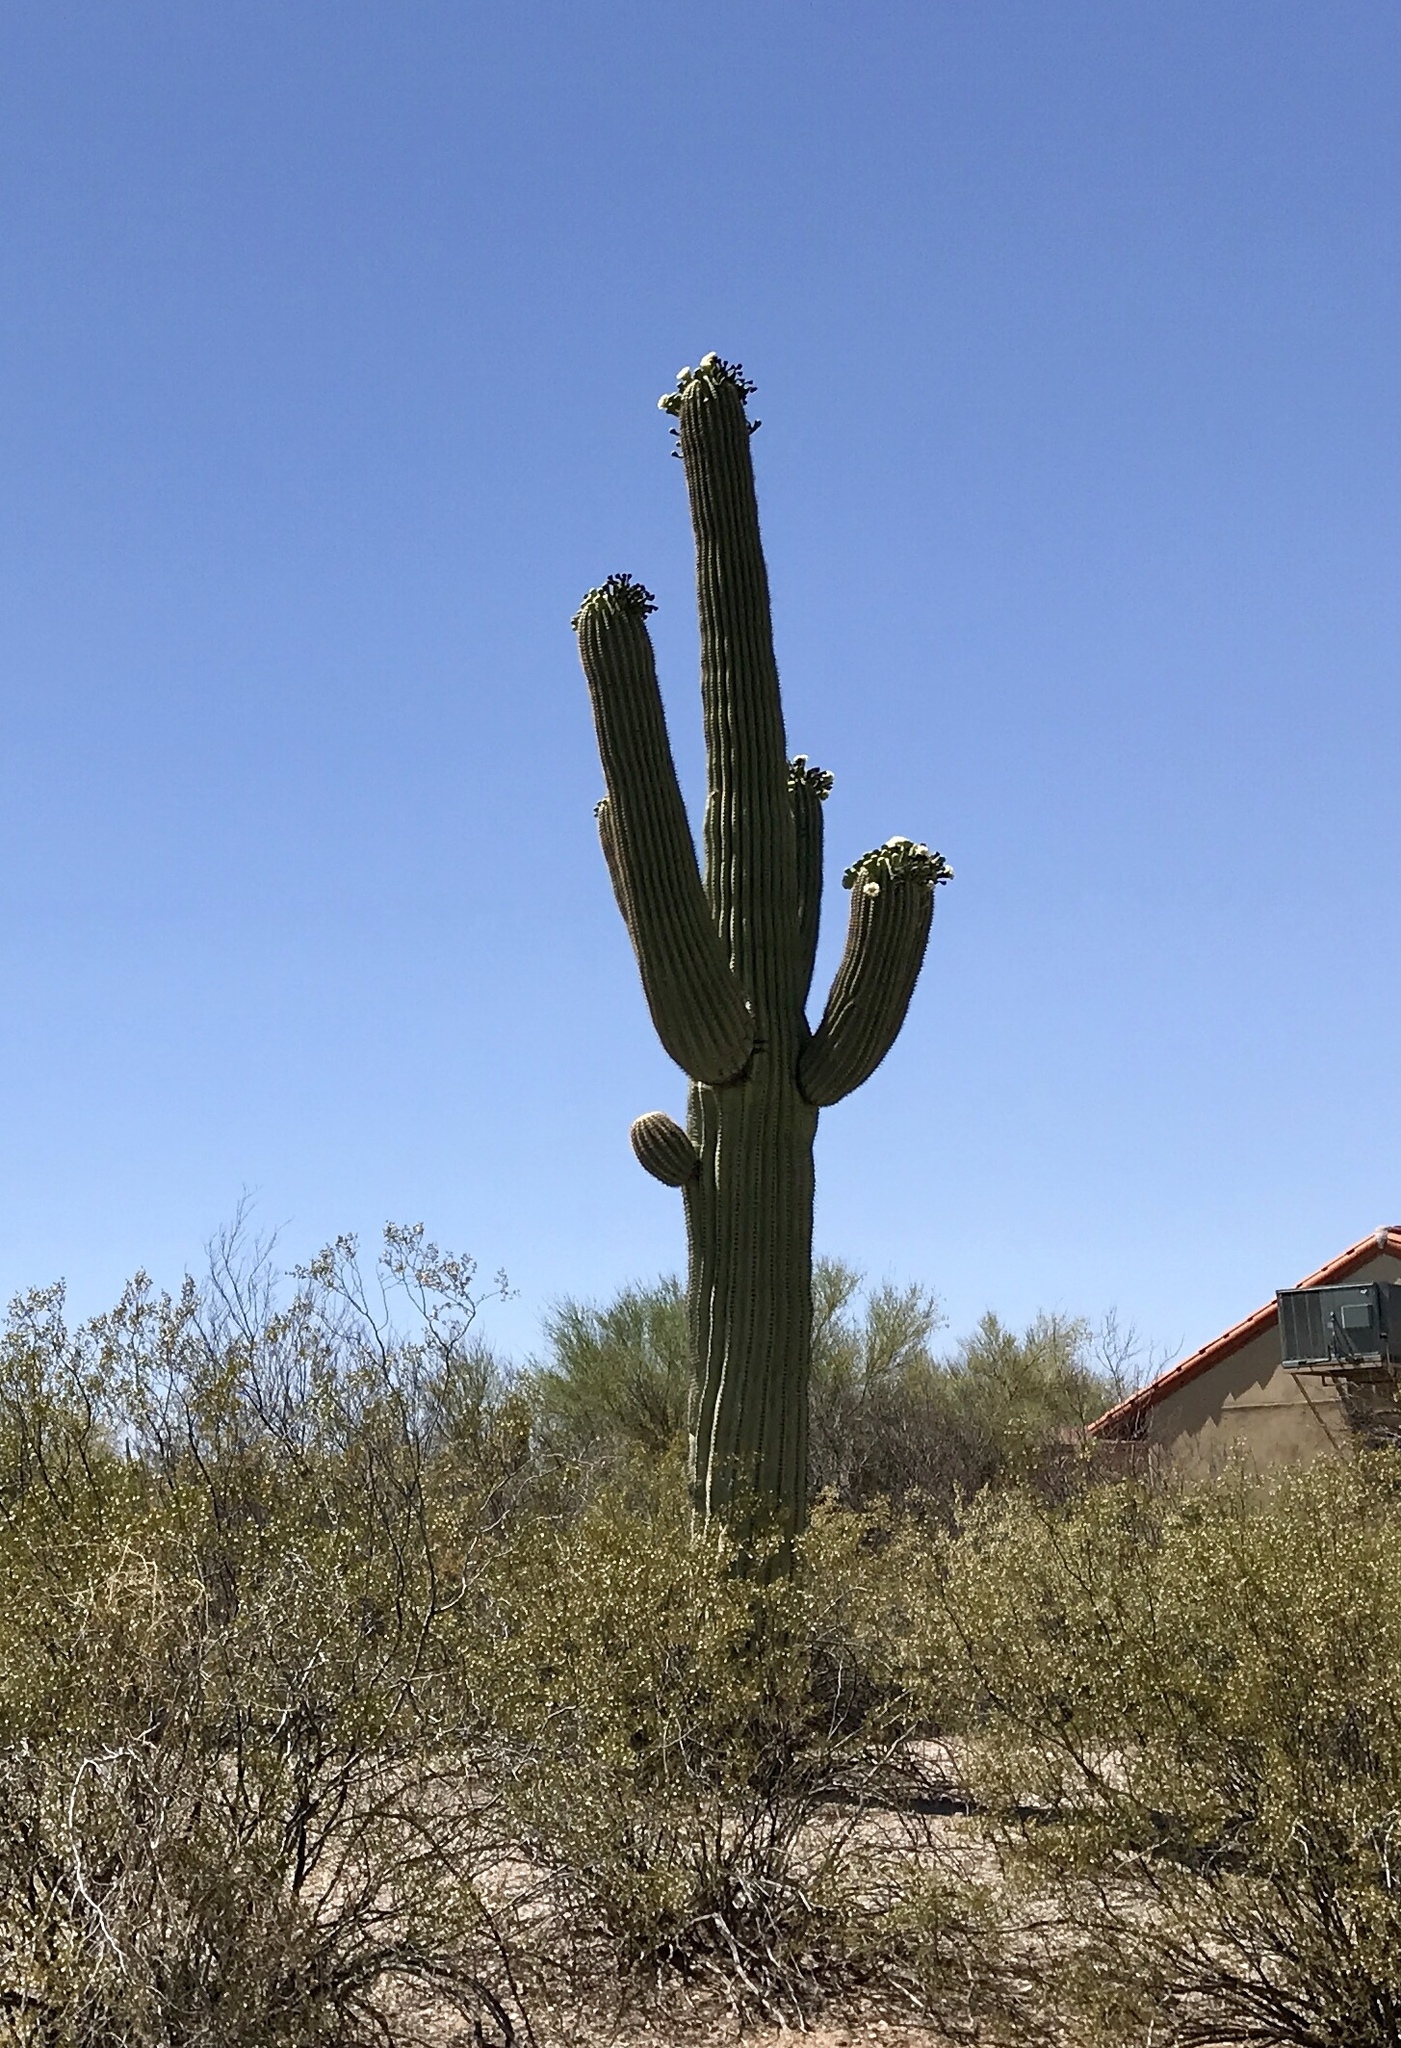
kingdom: Plantae
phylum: Tracheophyta
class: Magnoliopsida
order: Caryophyllales
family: Cactaceae
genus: Carnegiea
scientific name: Carnegiea gigantea
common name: Saguaro
